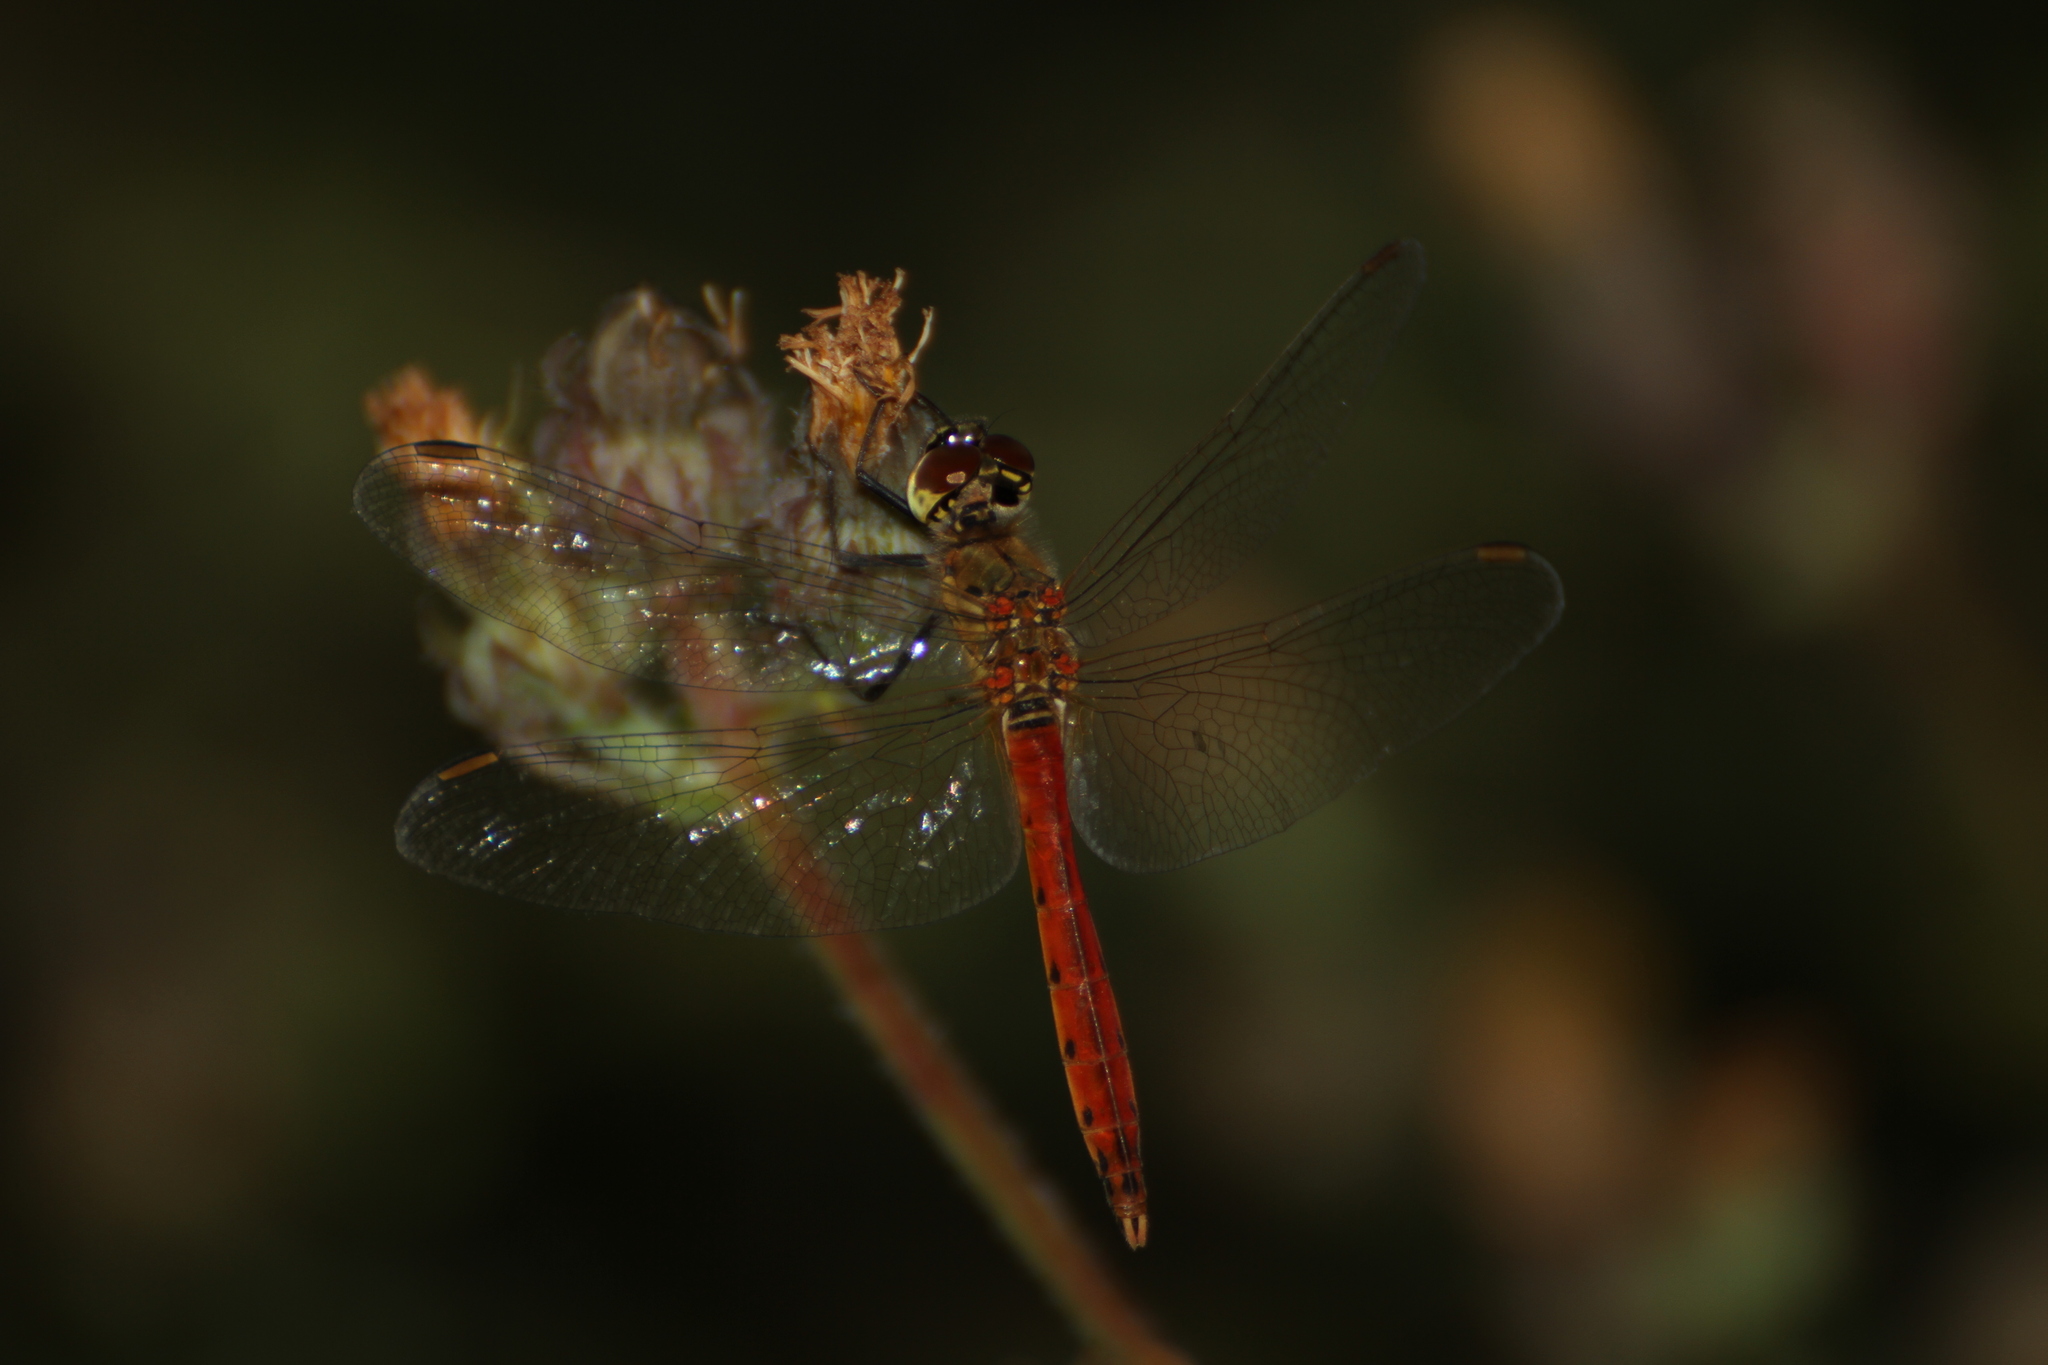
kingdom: Animalia
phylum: Arthropoda
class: Insecta
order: Odonata
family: Libellulidae
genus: Sympetrum
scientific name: Sympetrum depressiusculum
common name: Spotted darter
